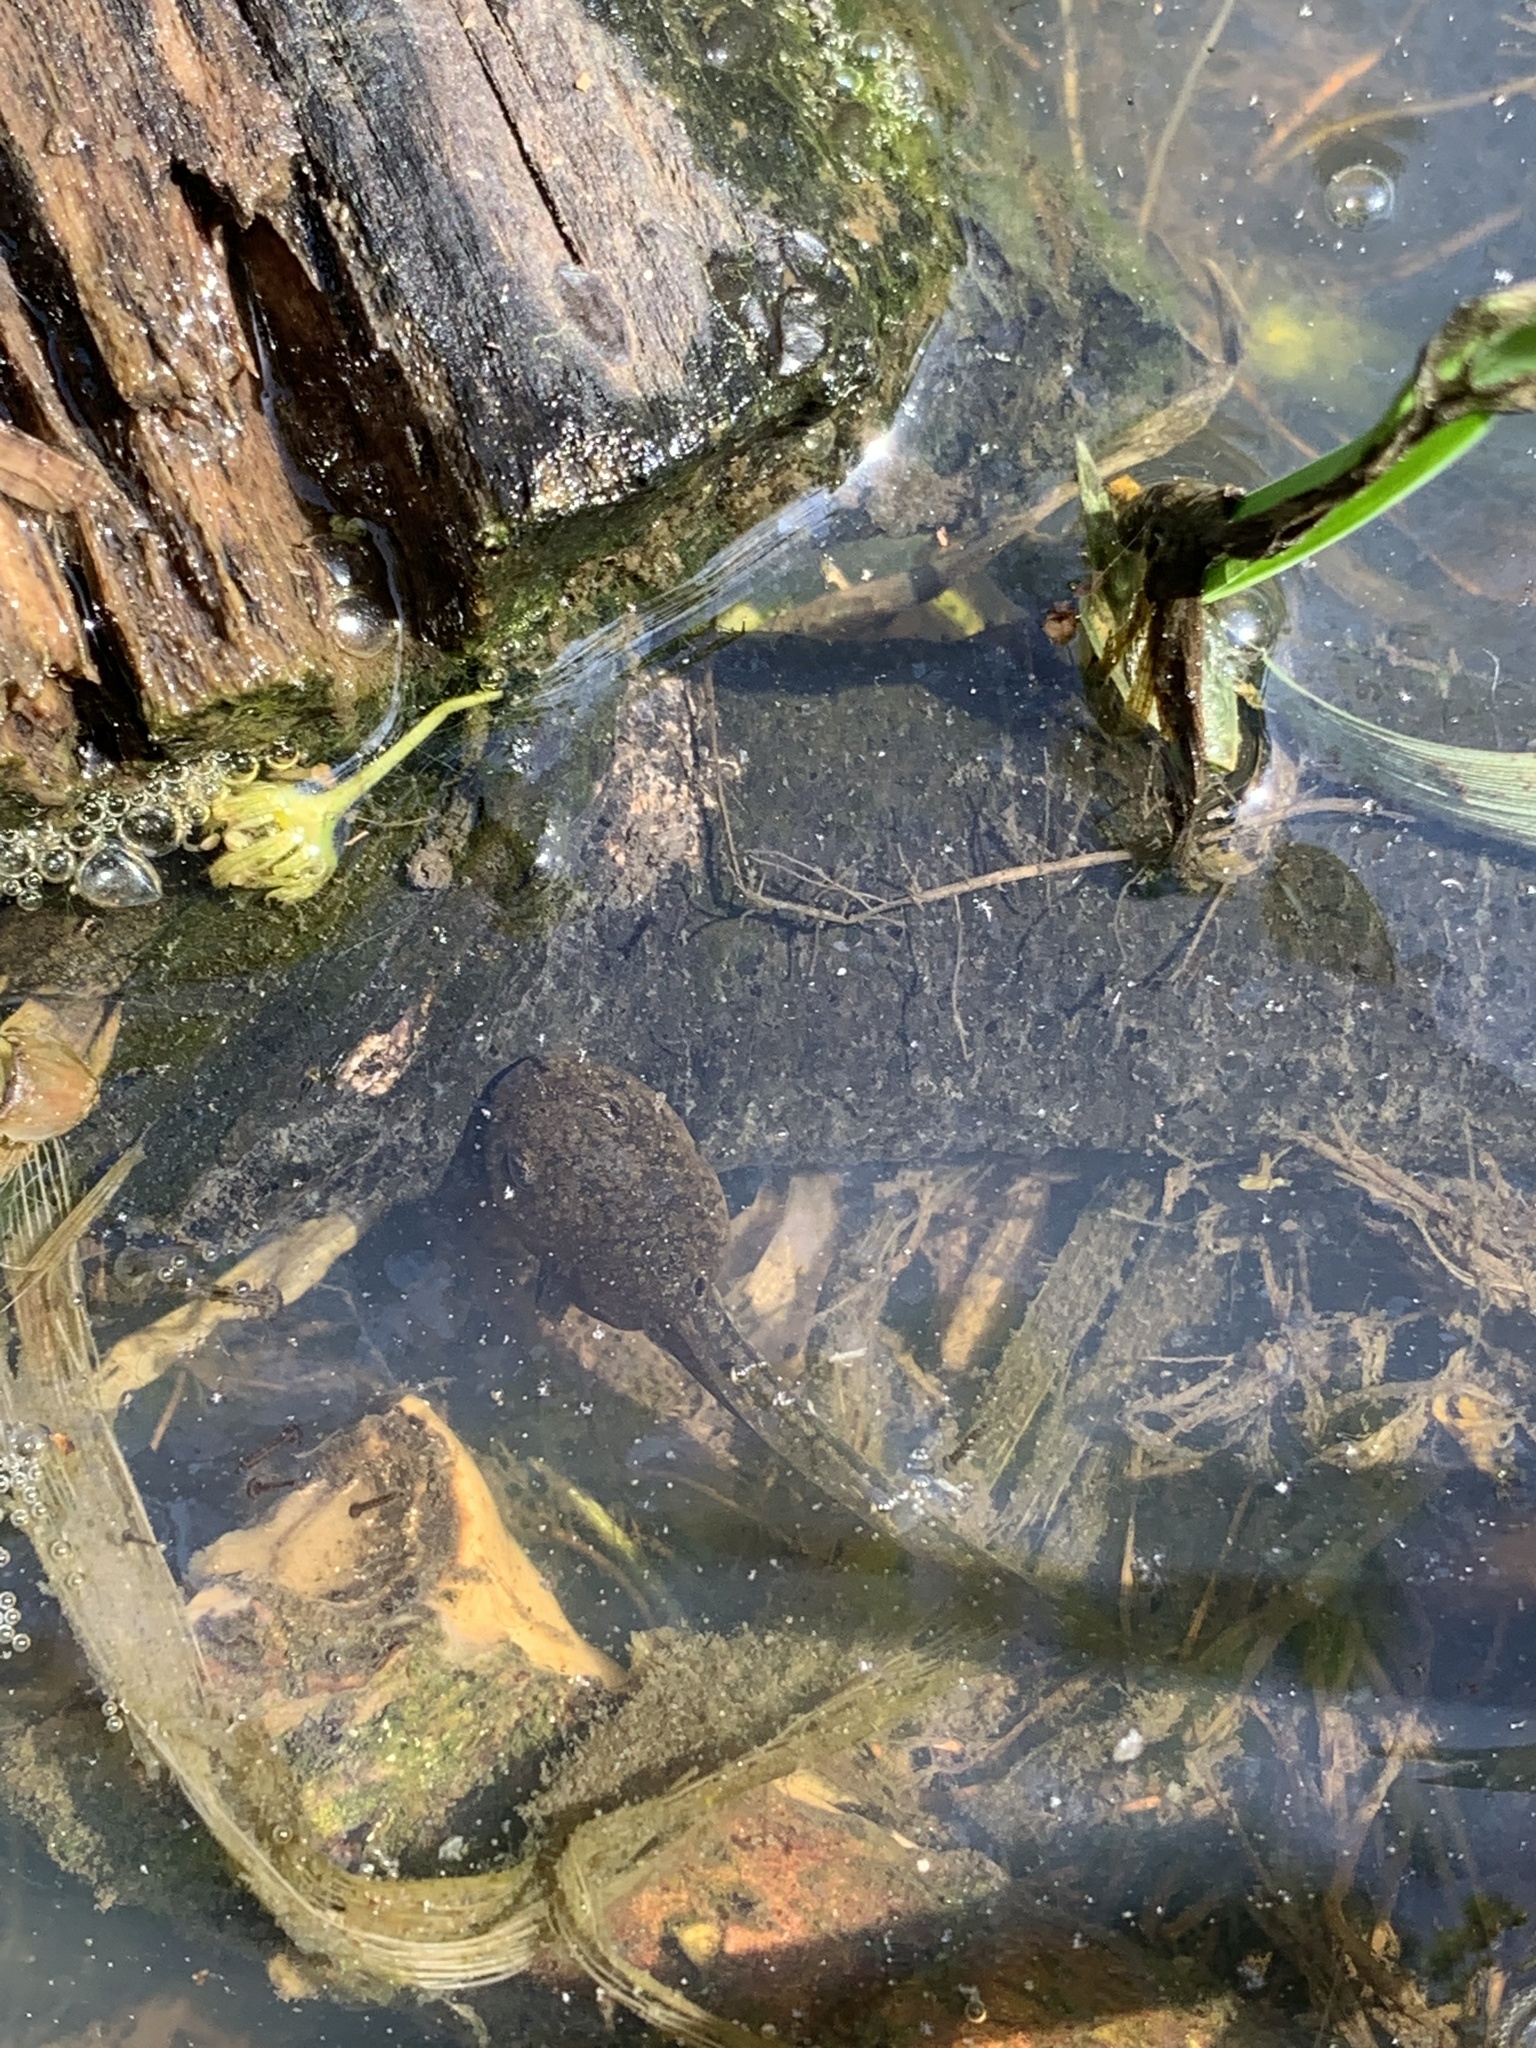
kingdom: Animalia
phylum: Chordata
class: Amphibia
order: Anura
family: Ranidae
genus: Rana
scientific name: Rana temporaria
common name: Common frog
